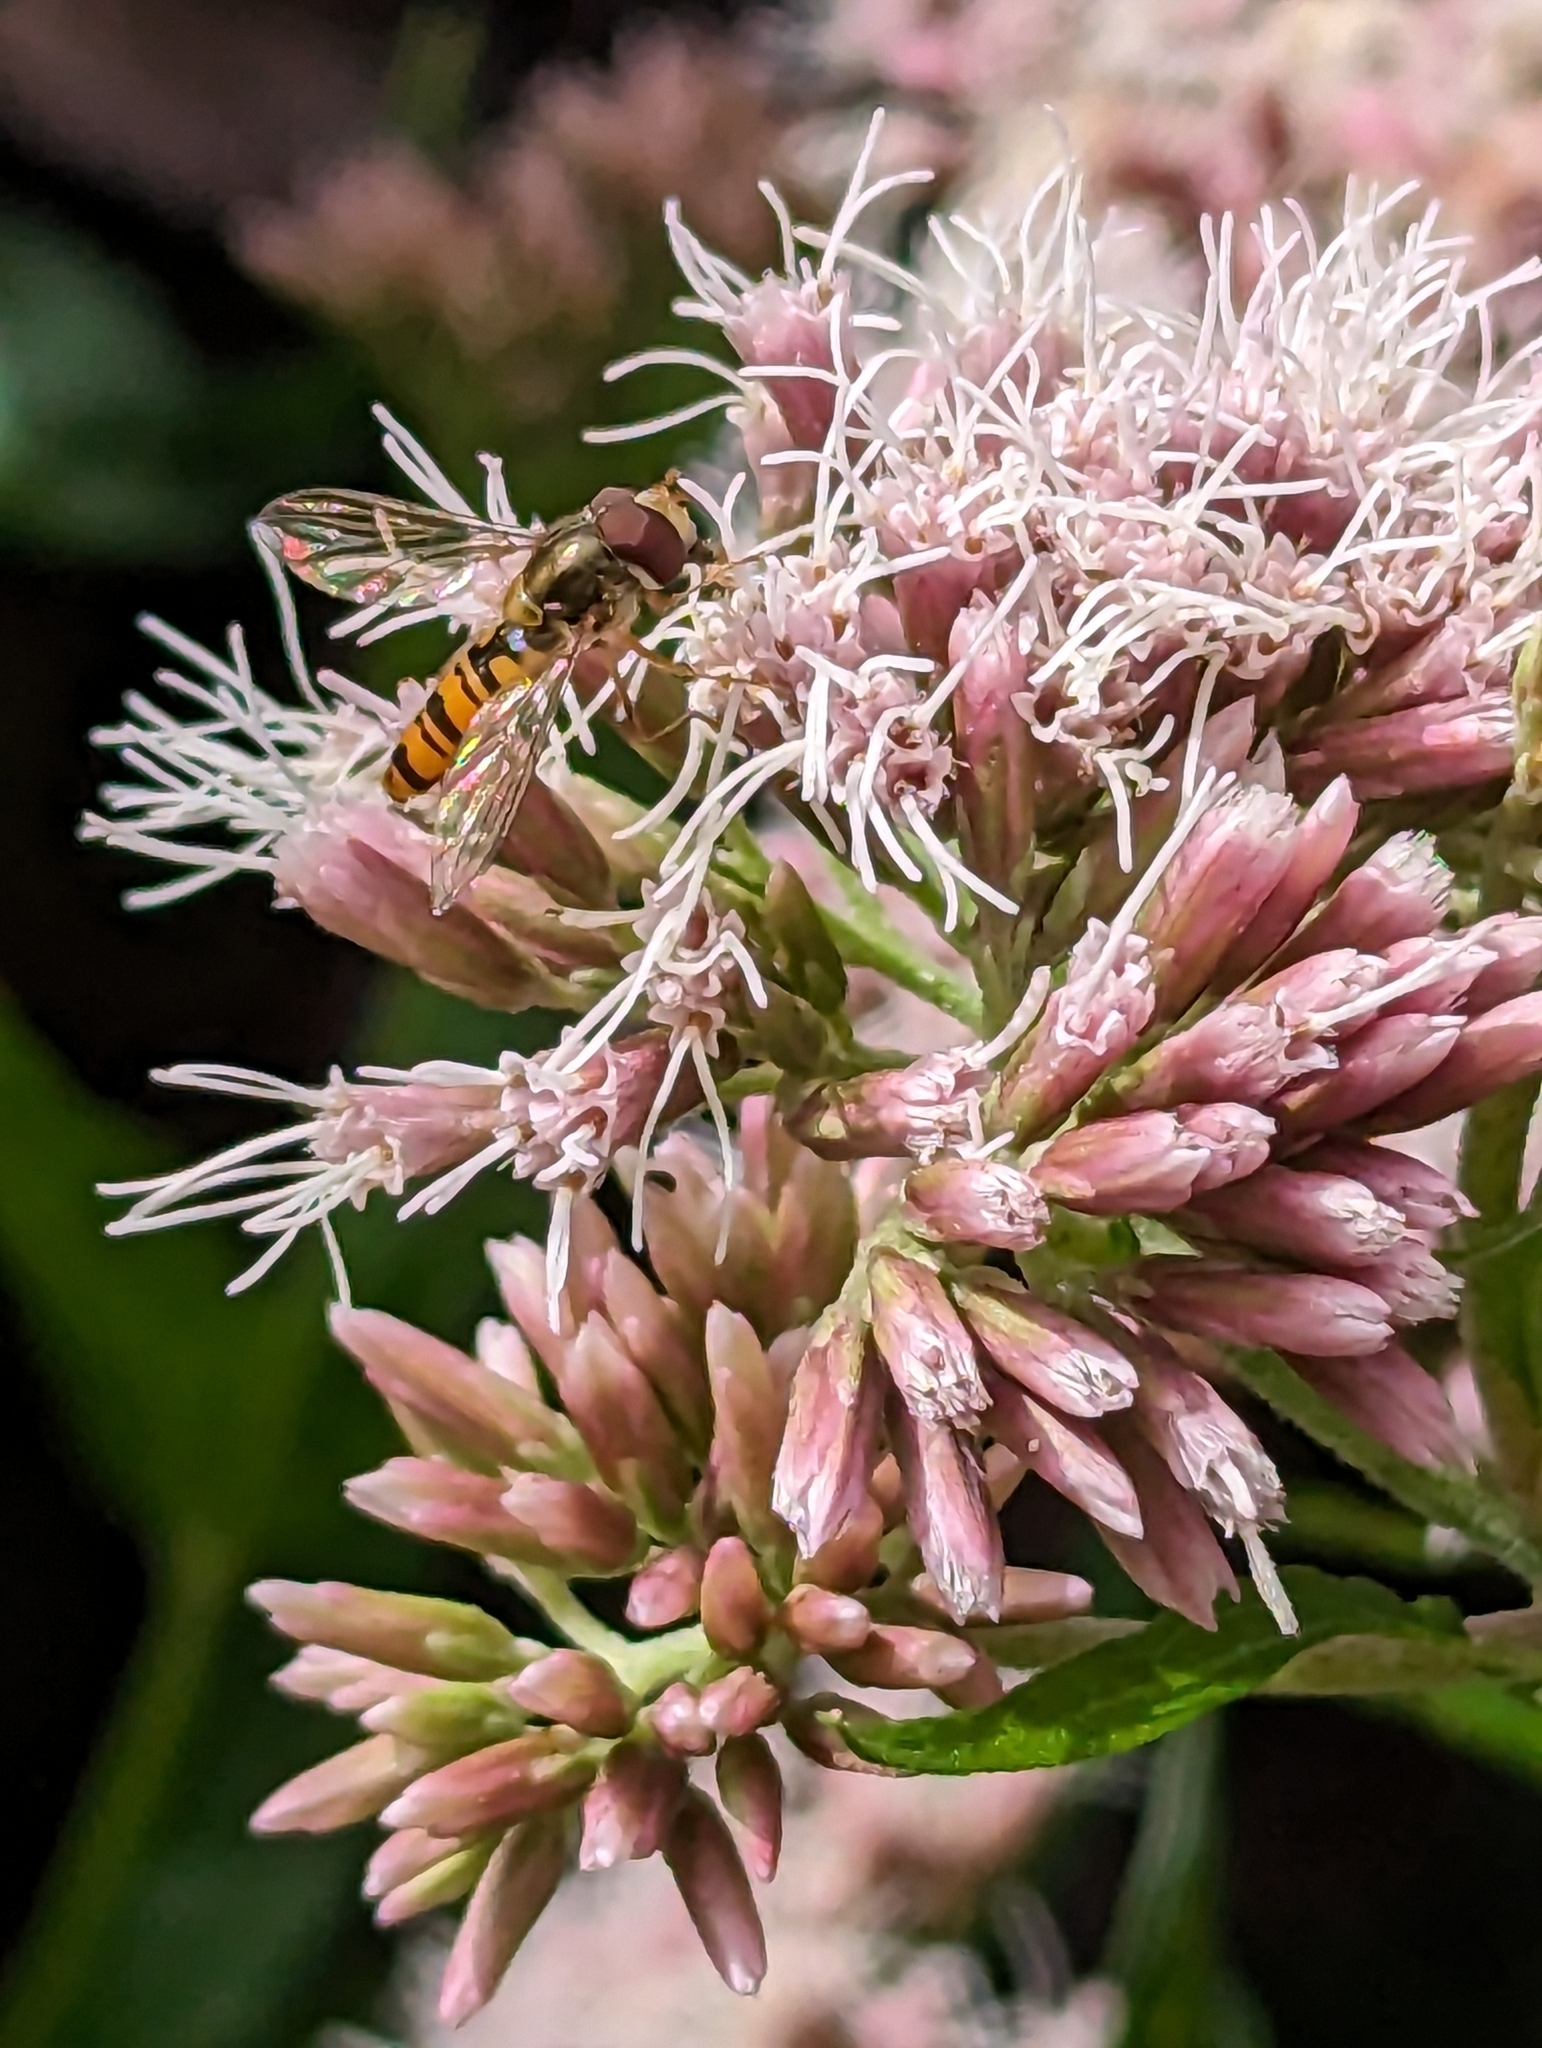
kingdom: Animalia
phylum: Arthropoda
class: Insecta
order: Diptera
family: Syrphidae
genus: Episyrphus
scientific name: Episyrphus balteatus
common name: Marmalade hoverfly
